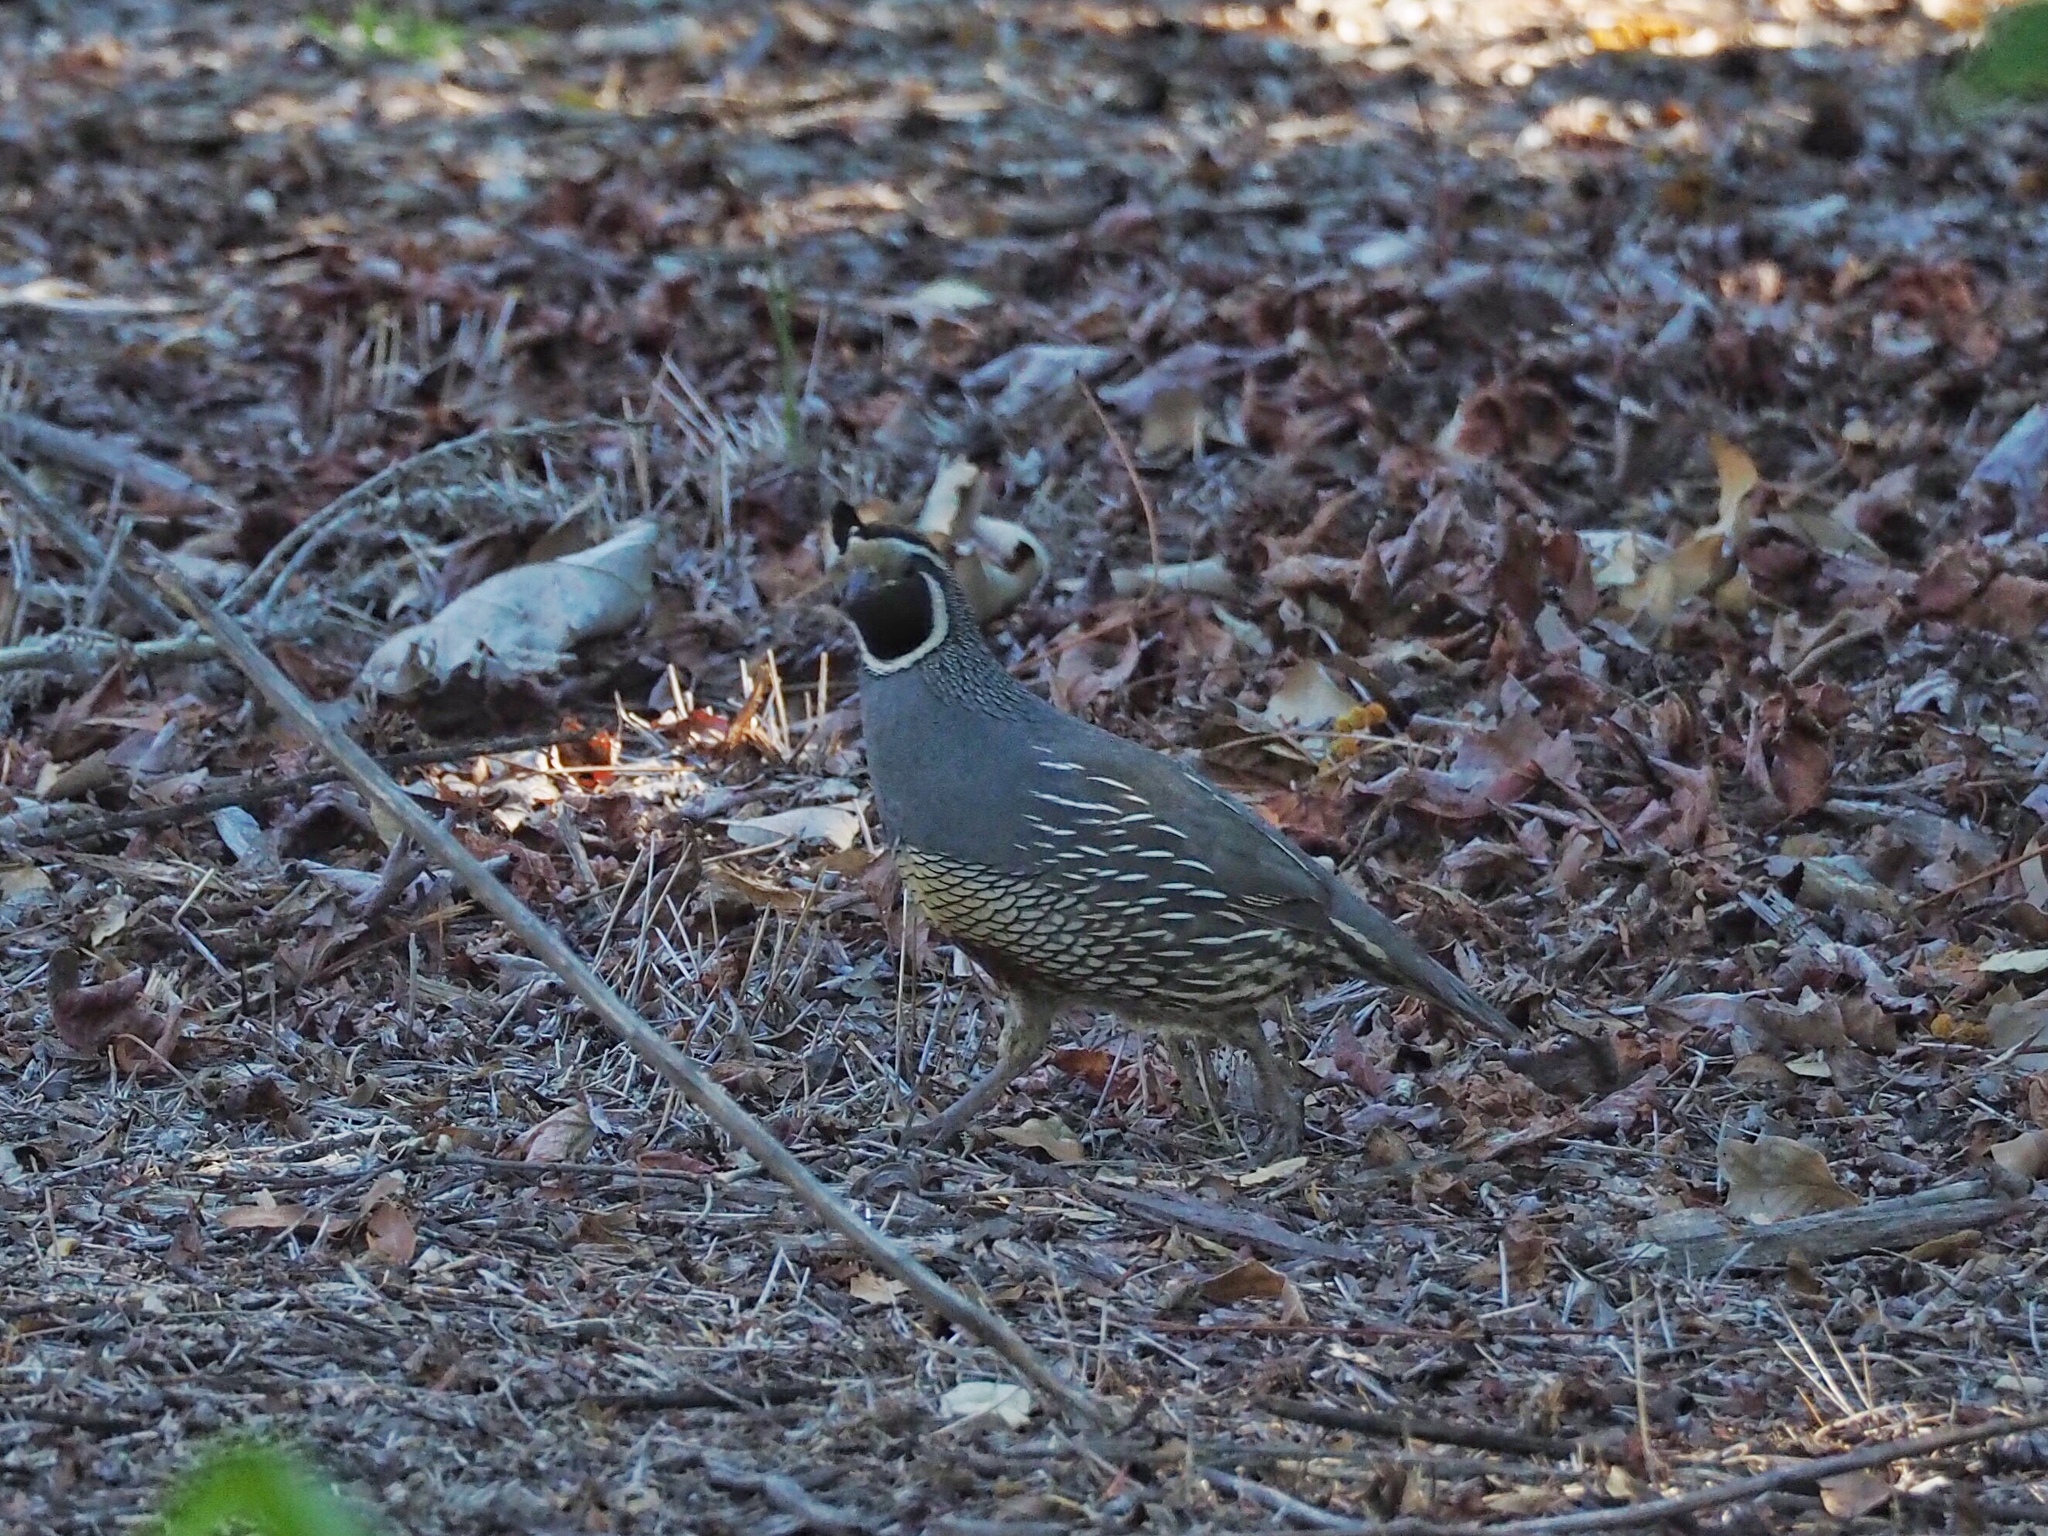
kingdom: Animalia
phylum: Chordata
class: Aves
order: Galliformes
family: Odontophoridae
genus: Callipepla
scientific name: Callipepla californica
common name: California quail
